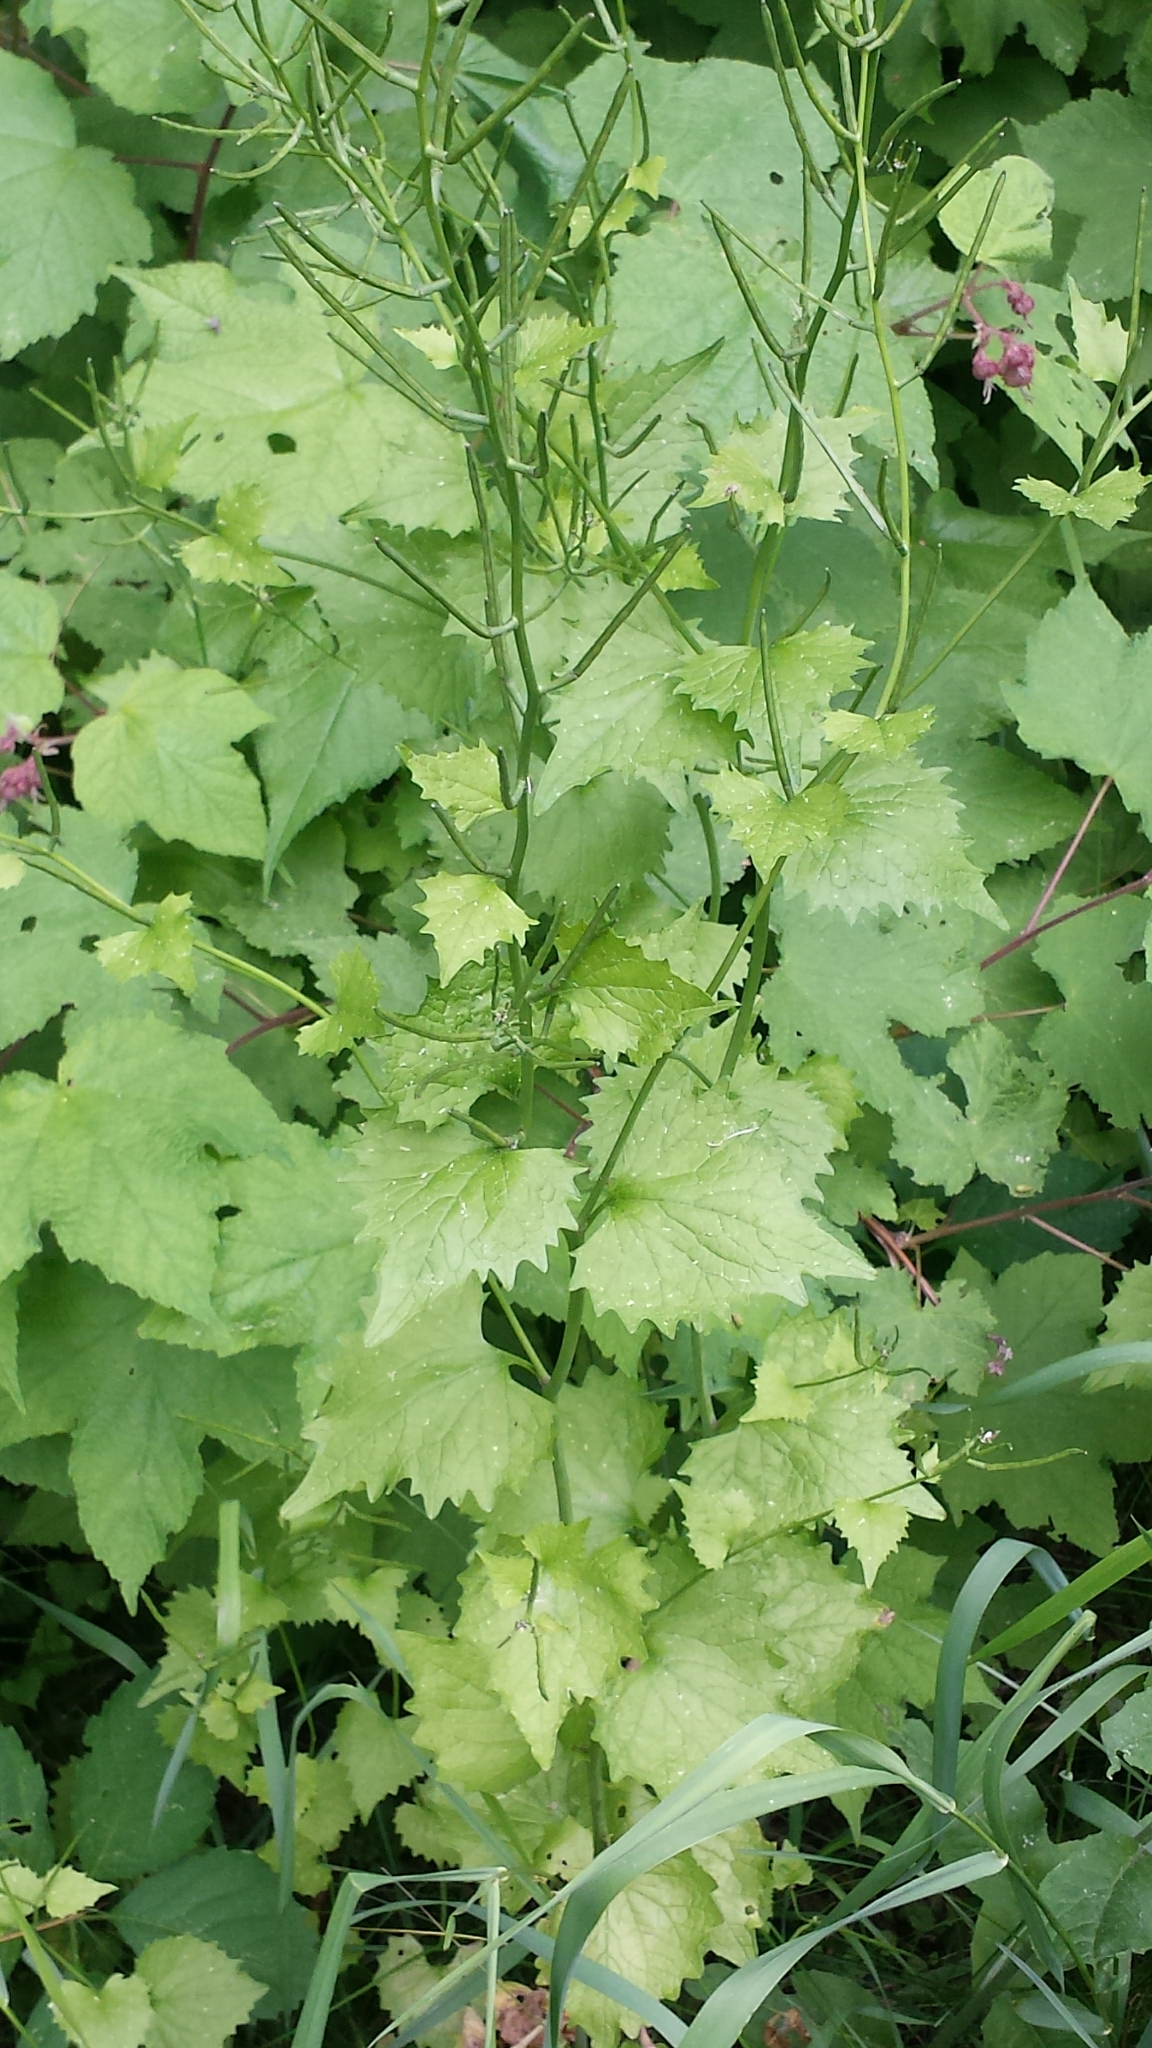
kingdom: Plantae
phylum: Tracheophyta
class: Magnoliopsida
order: Brassicales
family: Brassicaceae
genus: Alliaria
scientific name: Alliaria petiolata
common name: Garlic mustard
